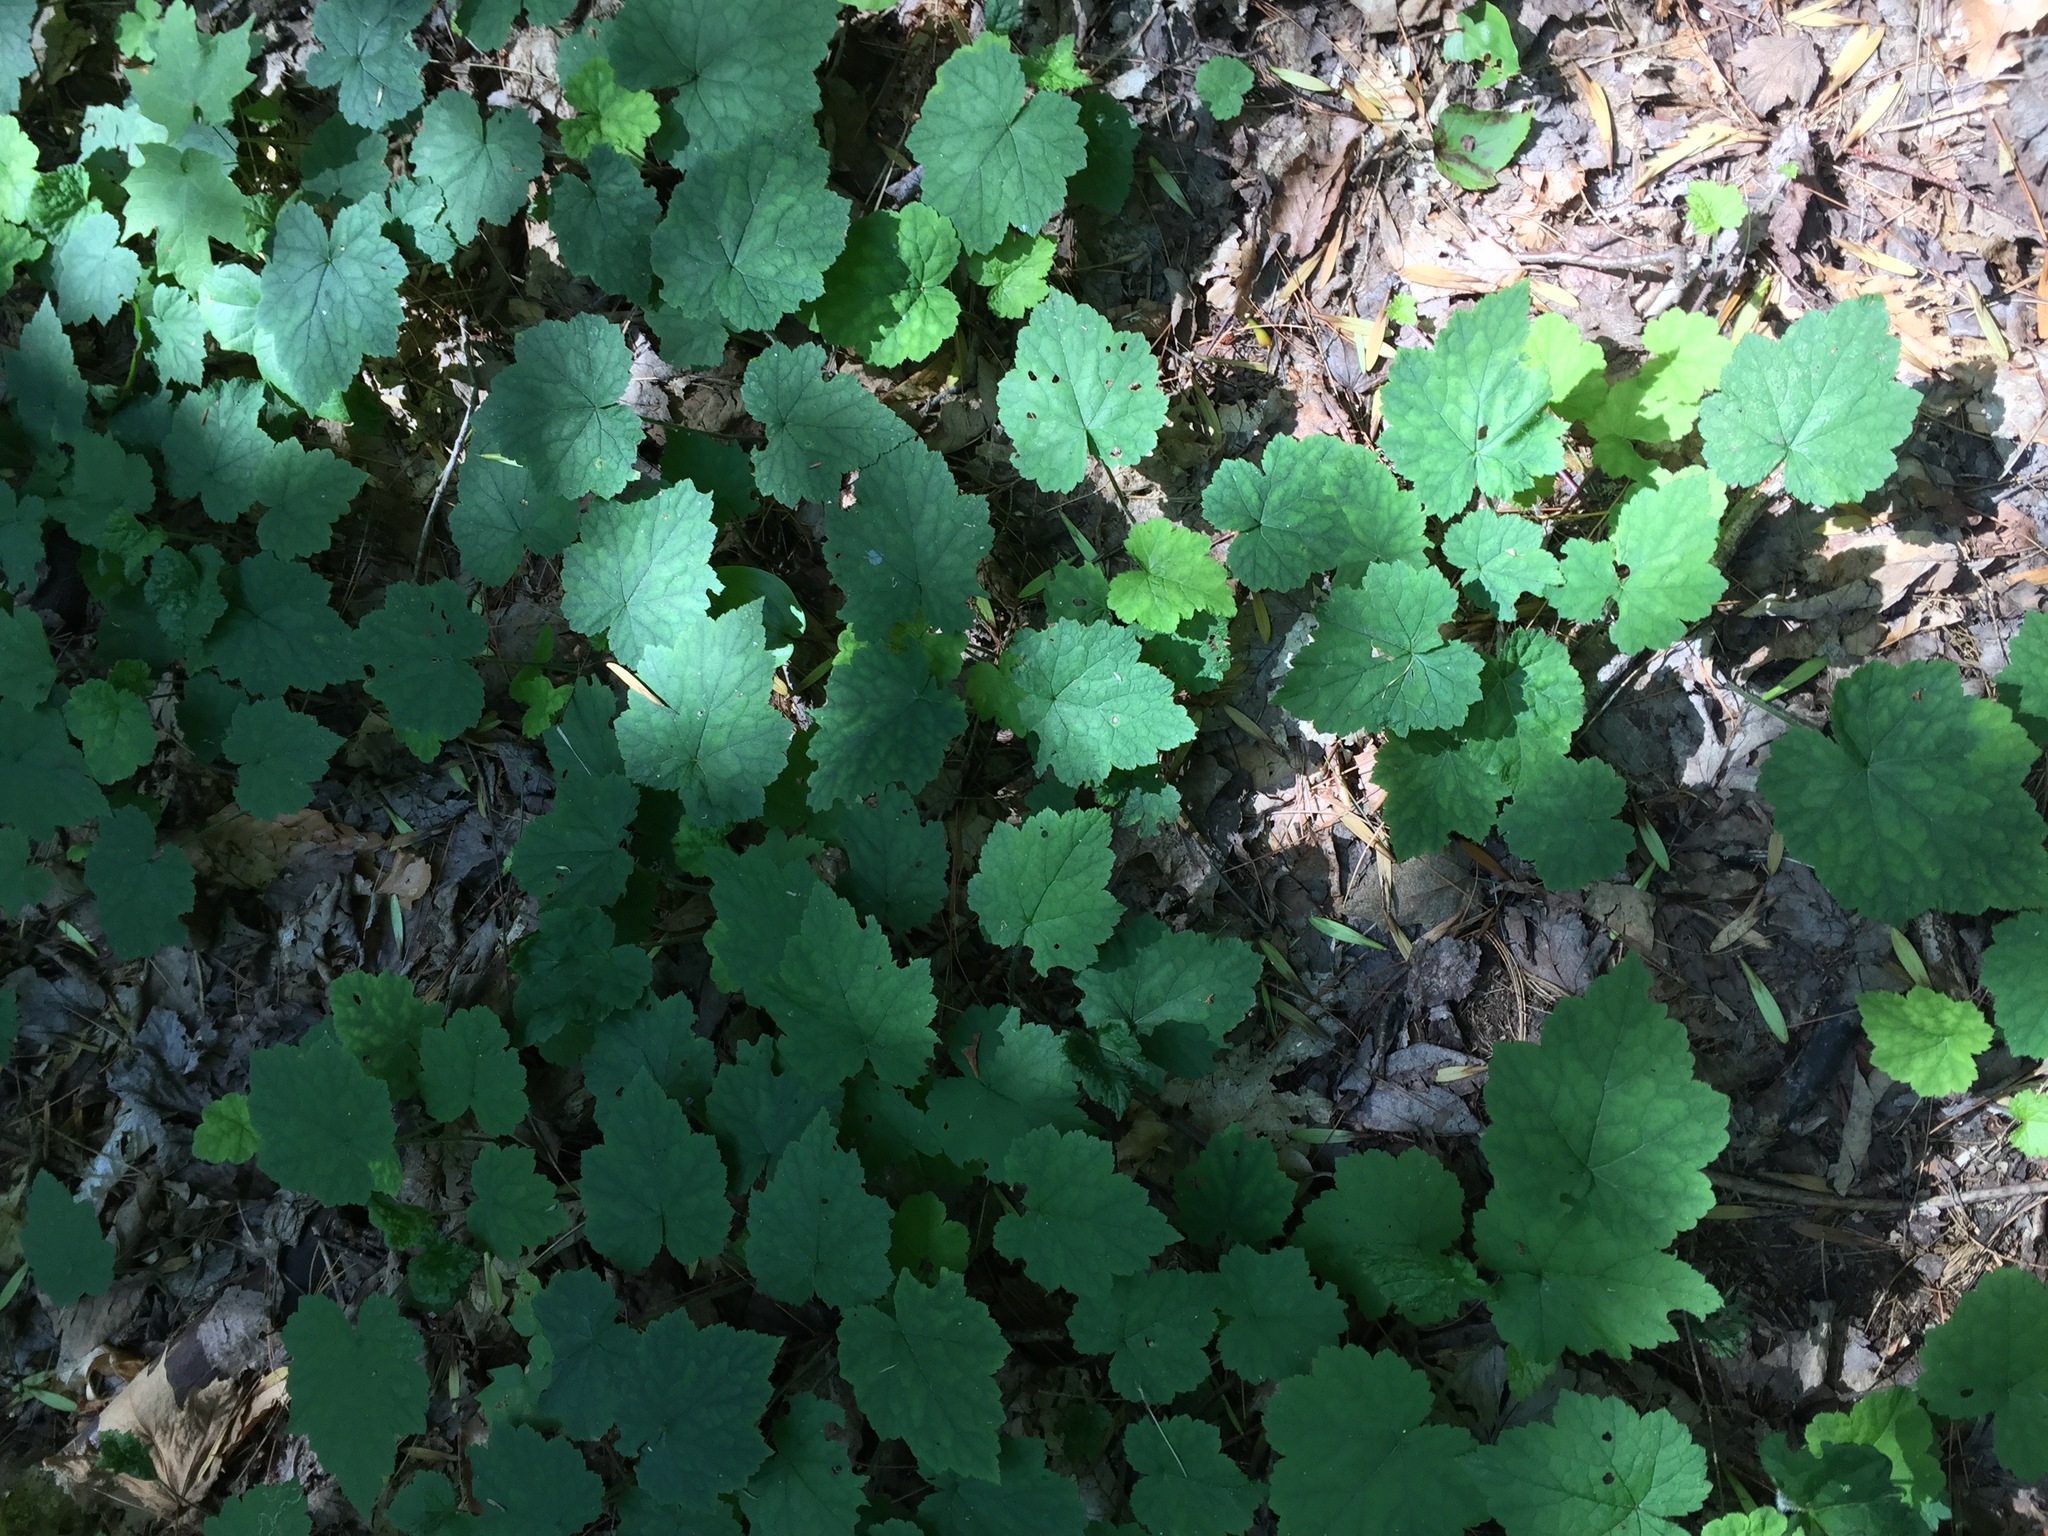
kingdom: Plantae
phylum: Tracheophyta
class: Magnoliopsida
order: Saxifragales
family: Saxifragaceae
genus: Tiarella
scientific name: Tiarella stolonifera
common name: Stoloniferous foamflower
